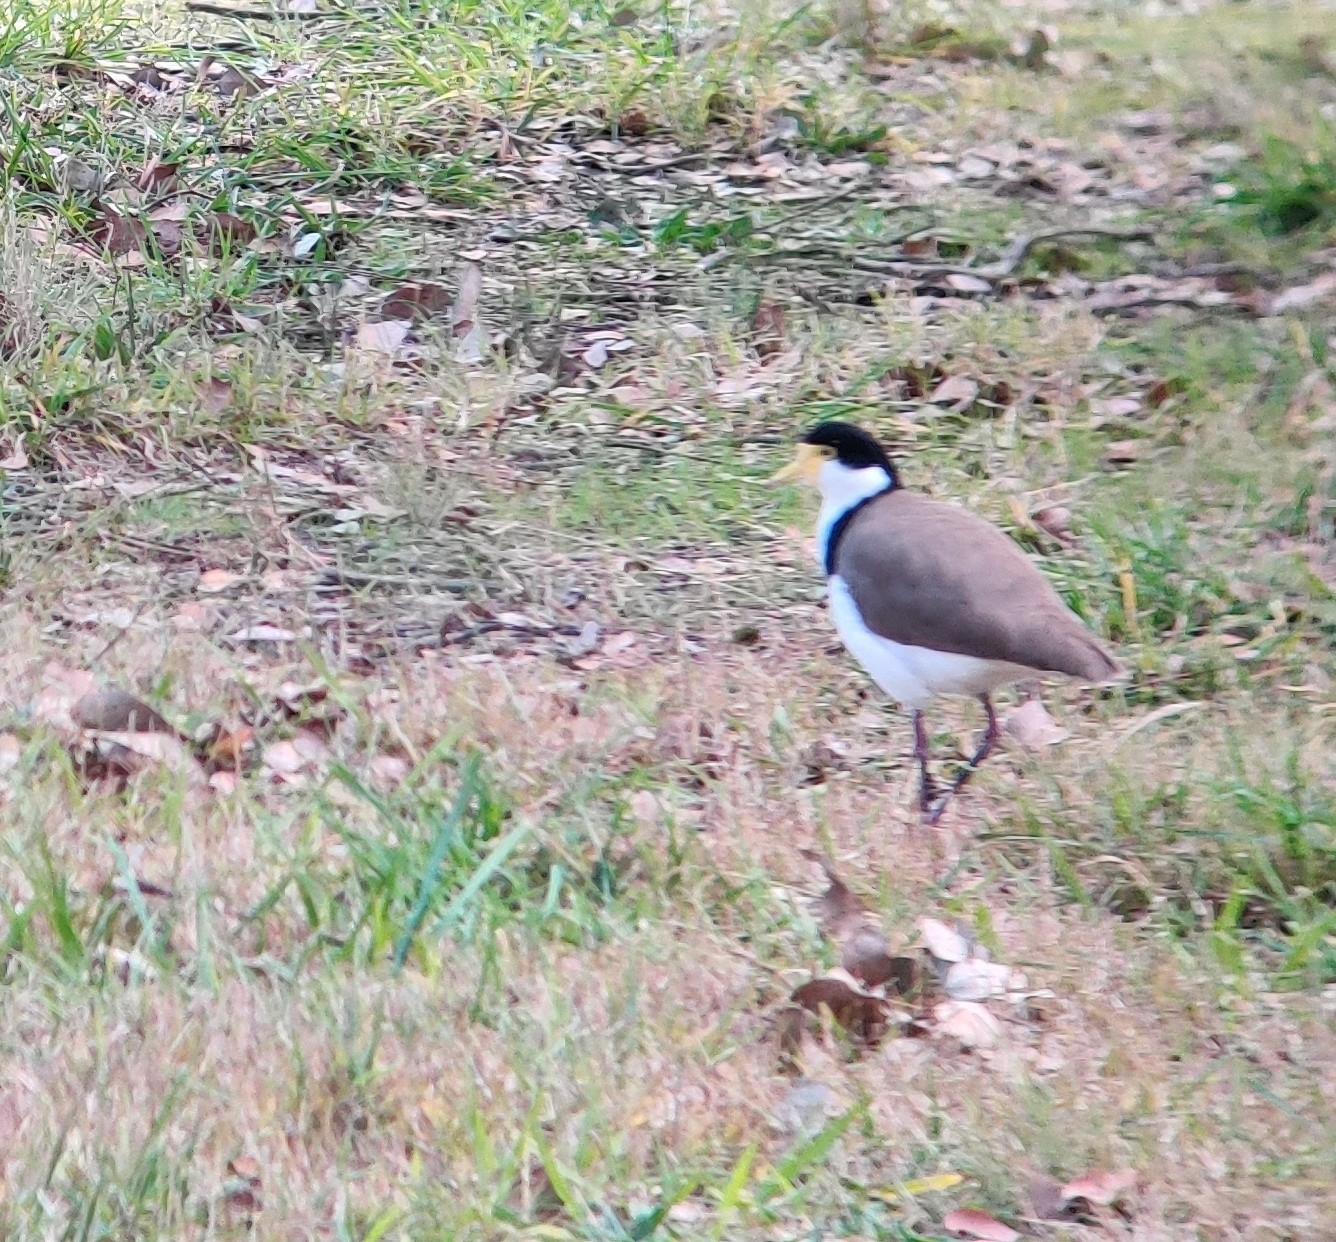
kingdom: Animalia
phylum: Chordata
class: Aves
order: Charadriiformes
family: Charadriidae
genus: Vanellus
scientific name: Vanellus miles
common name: Masked lapwing
